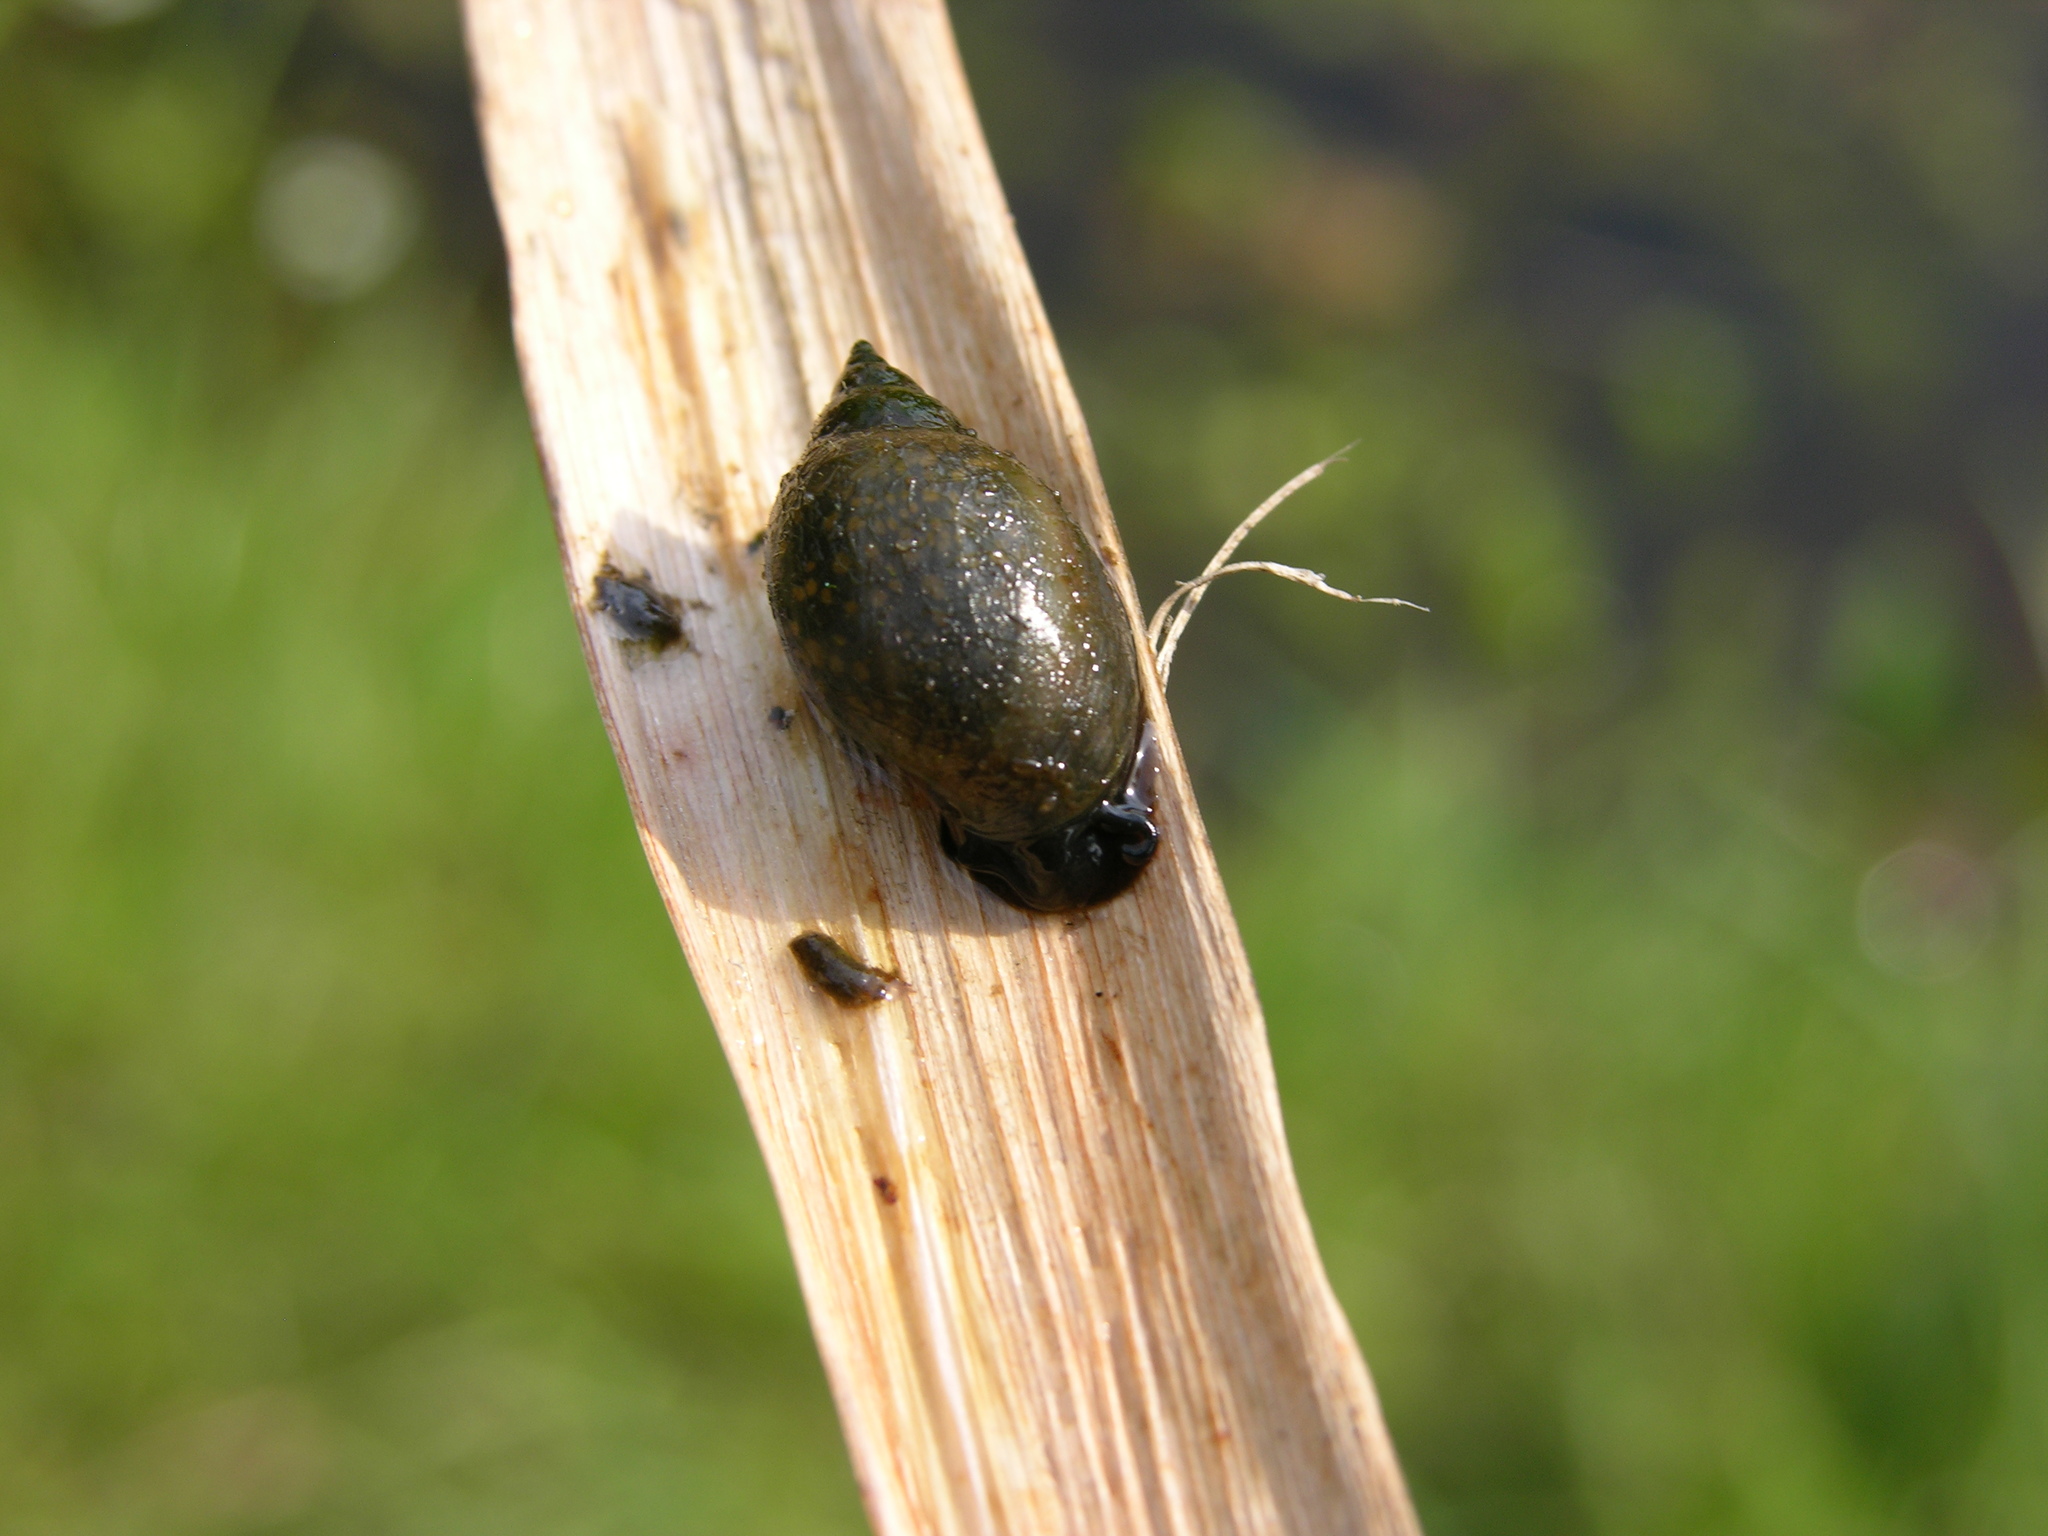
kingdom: Animalia
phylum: Mollusca
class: Gastropoda
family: Physidae
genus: Physella
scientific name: Physella acuta
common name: European physa
